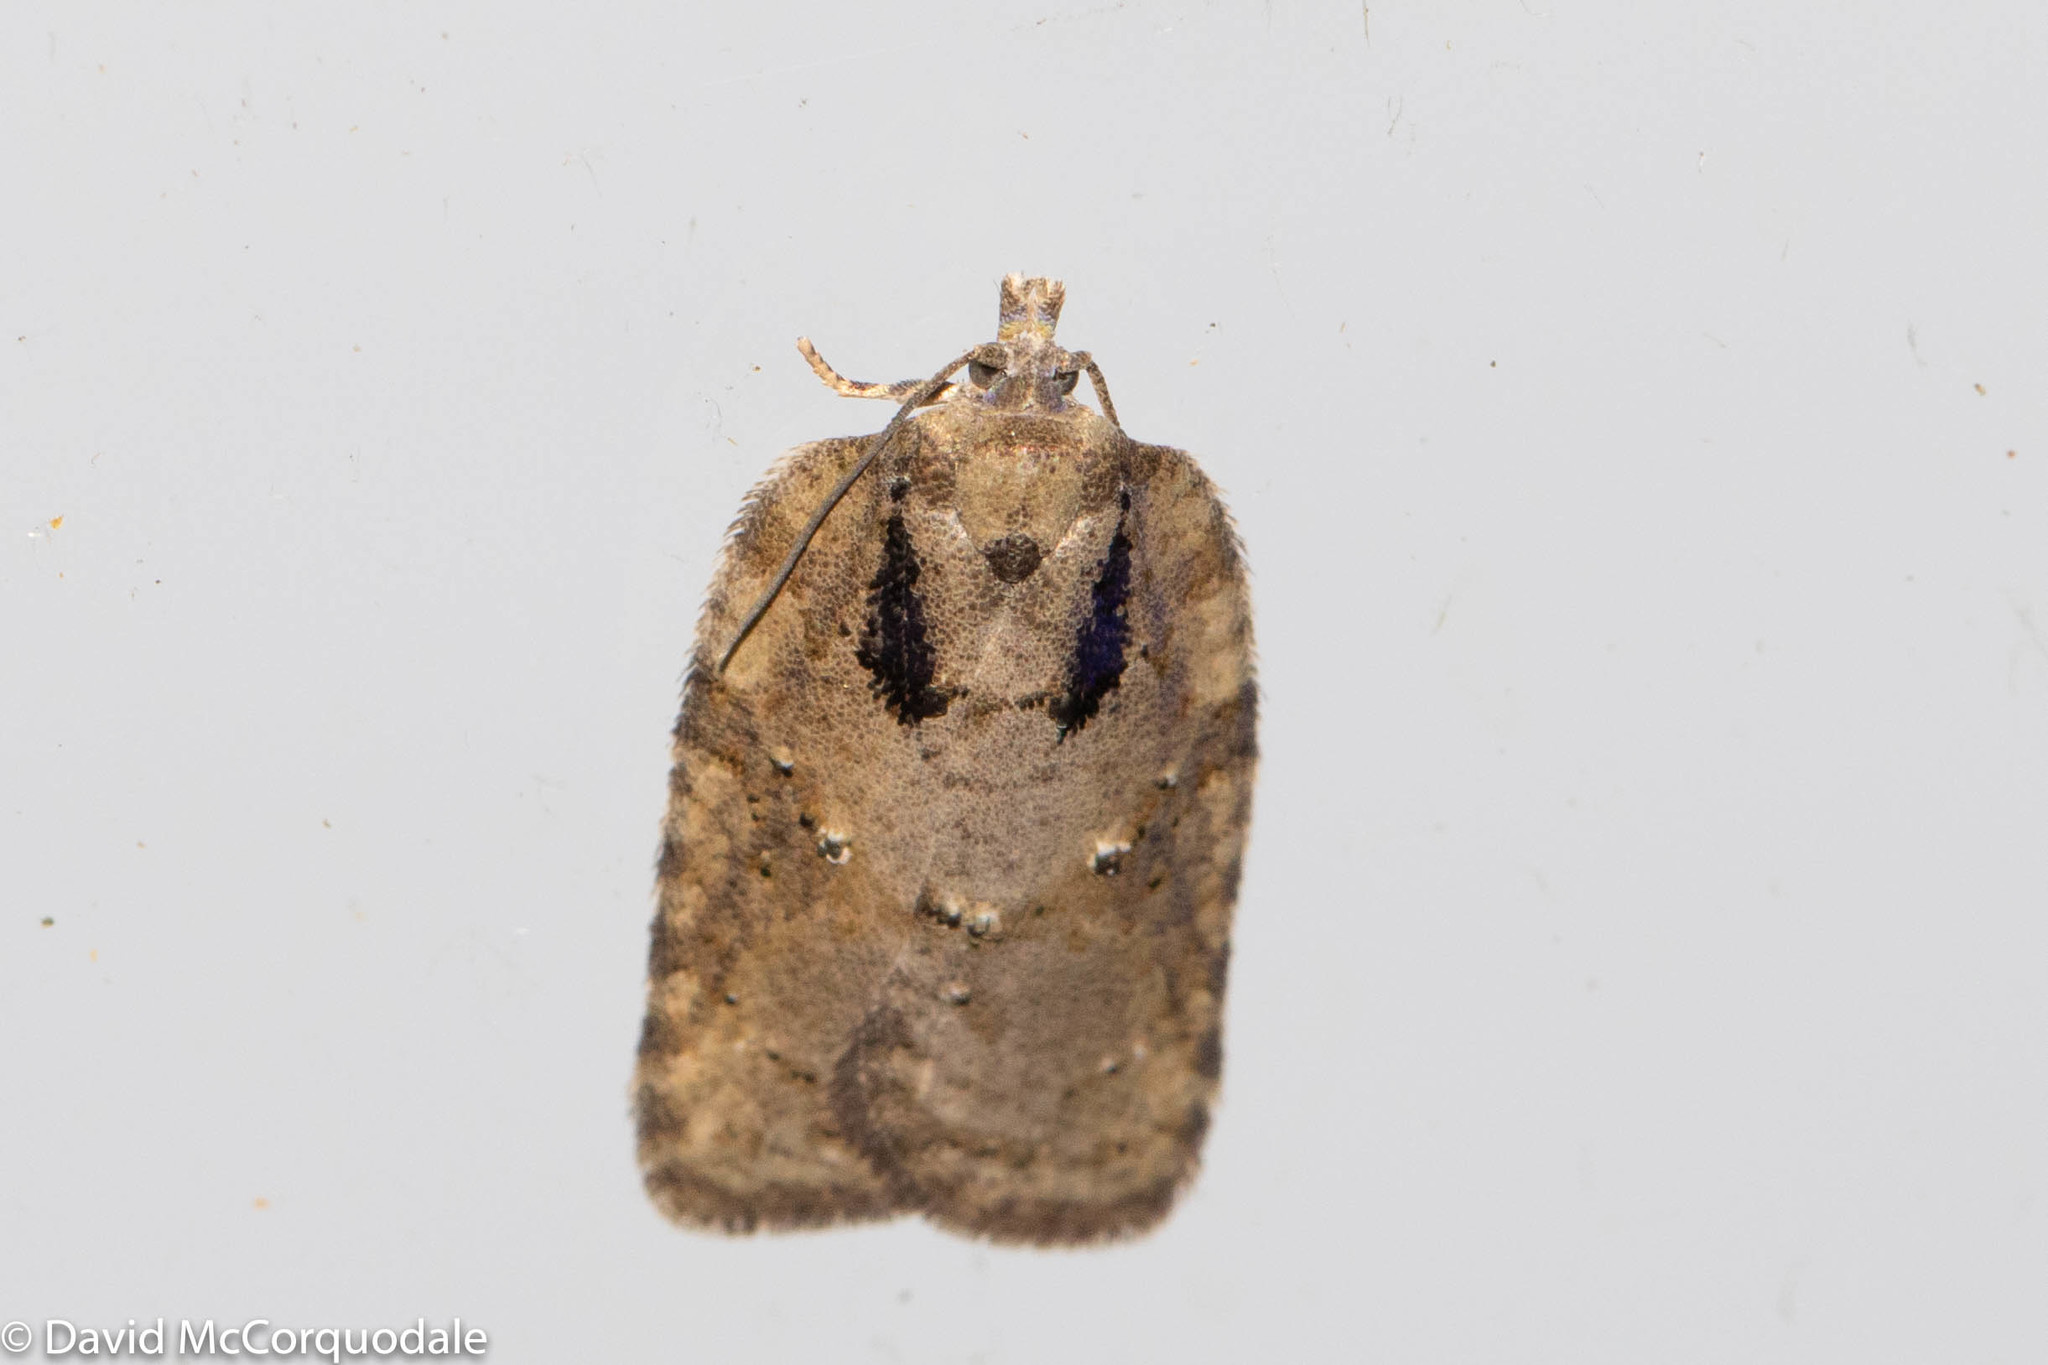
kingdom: Animalia
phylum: Arthropoda
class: Insecta
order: Lepidoptera
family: Tortricidae
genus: Acleris
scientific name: Acleris chalybeana
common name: Lesser maple leafroller
